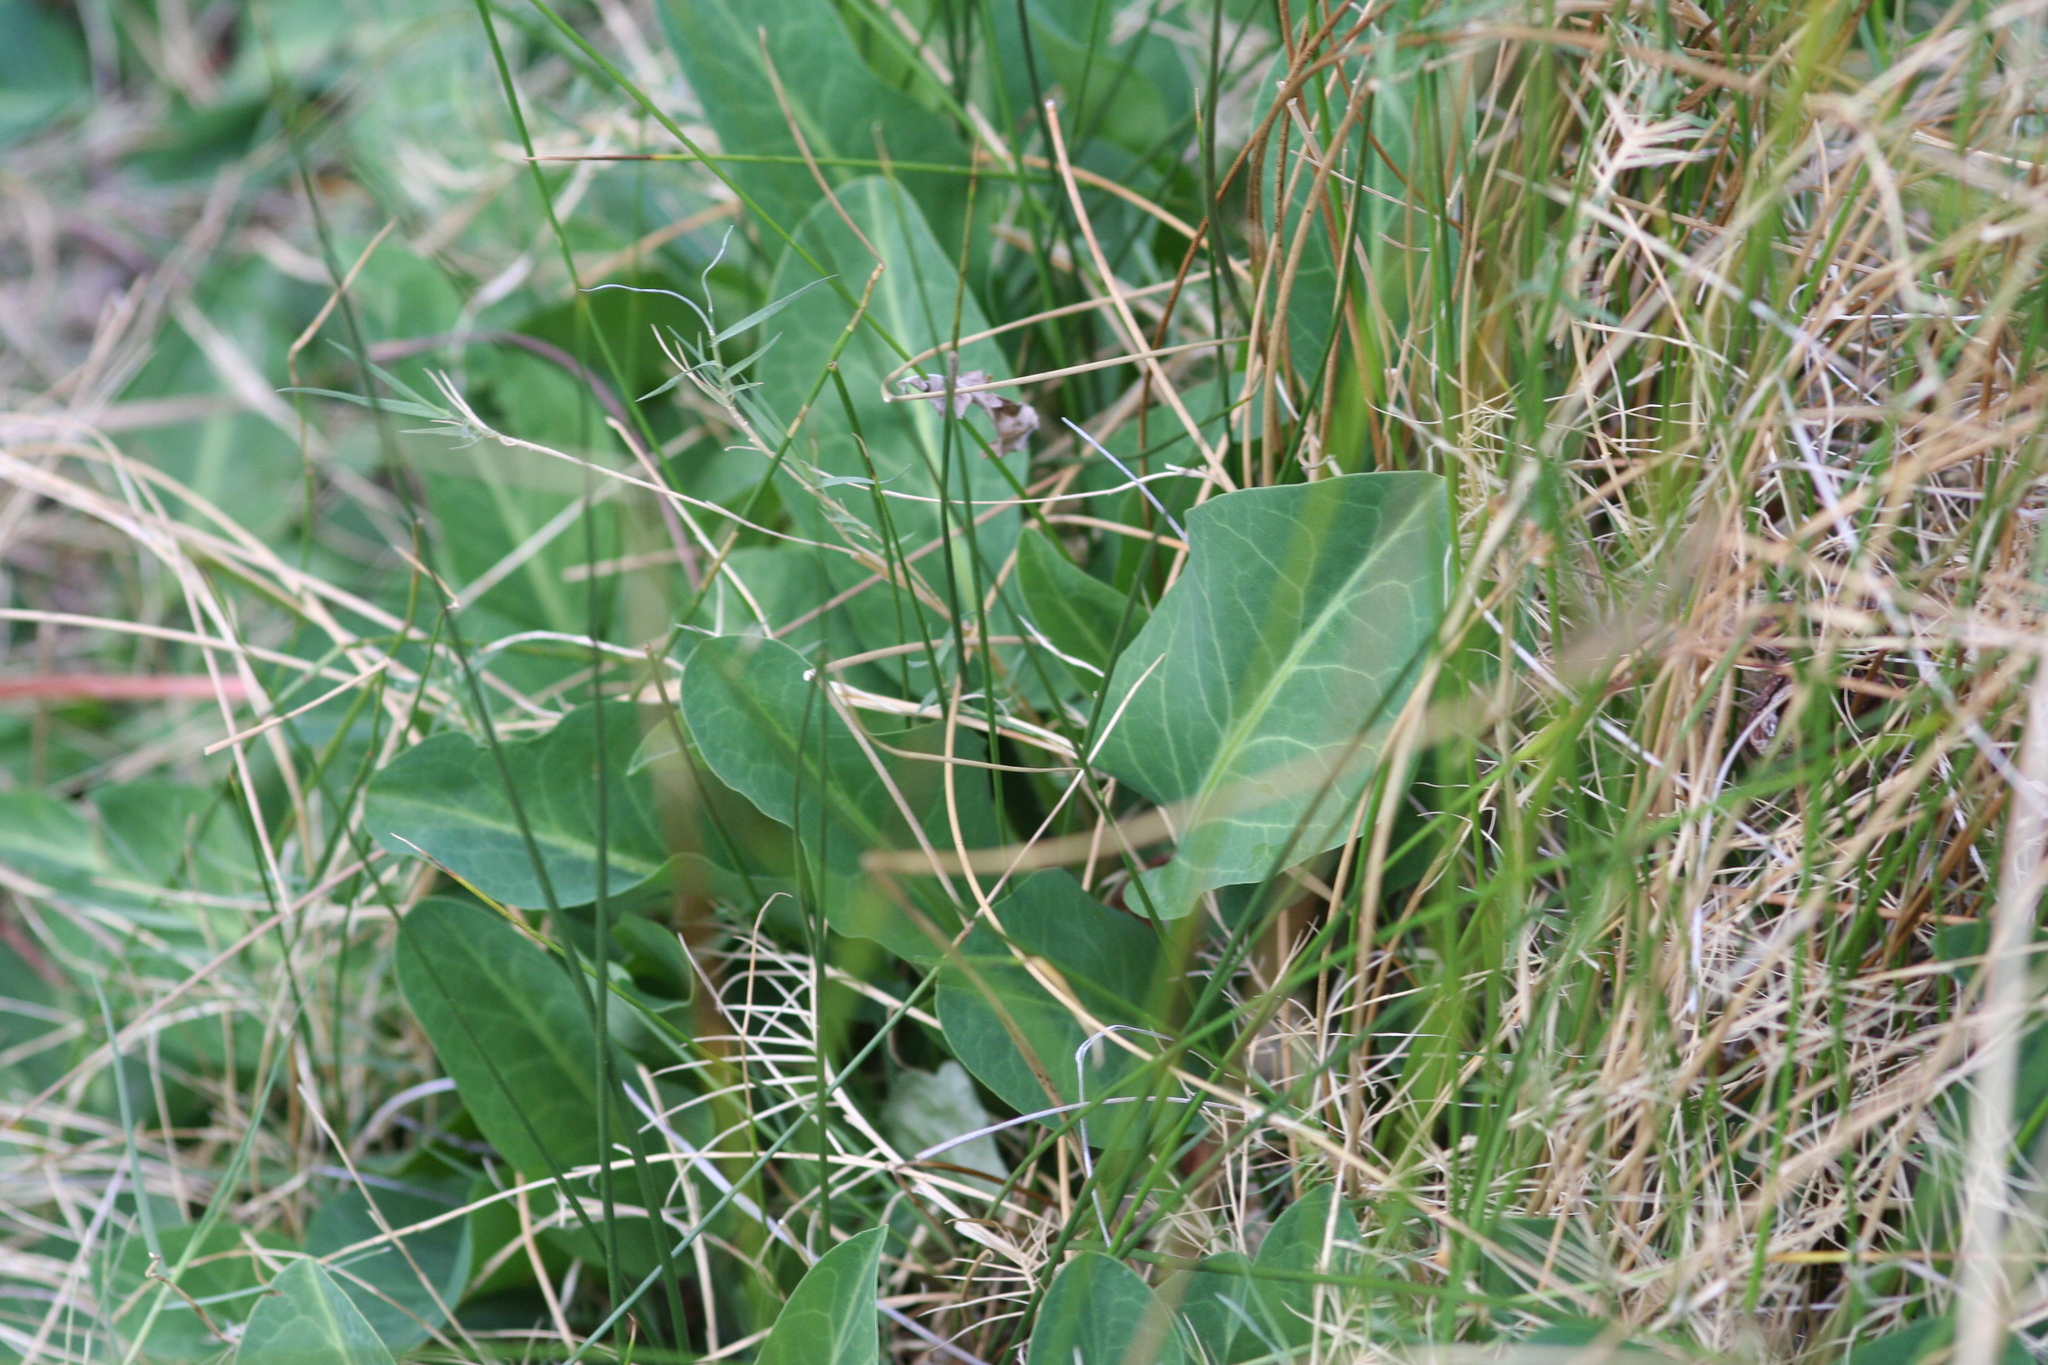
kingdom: Plantae
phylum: Tracheophyta
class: Magnoliopsida
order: Piperales
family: Saururaceae
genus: Anemopsis
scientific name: Anemopsis californica
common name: Apache-beads
